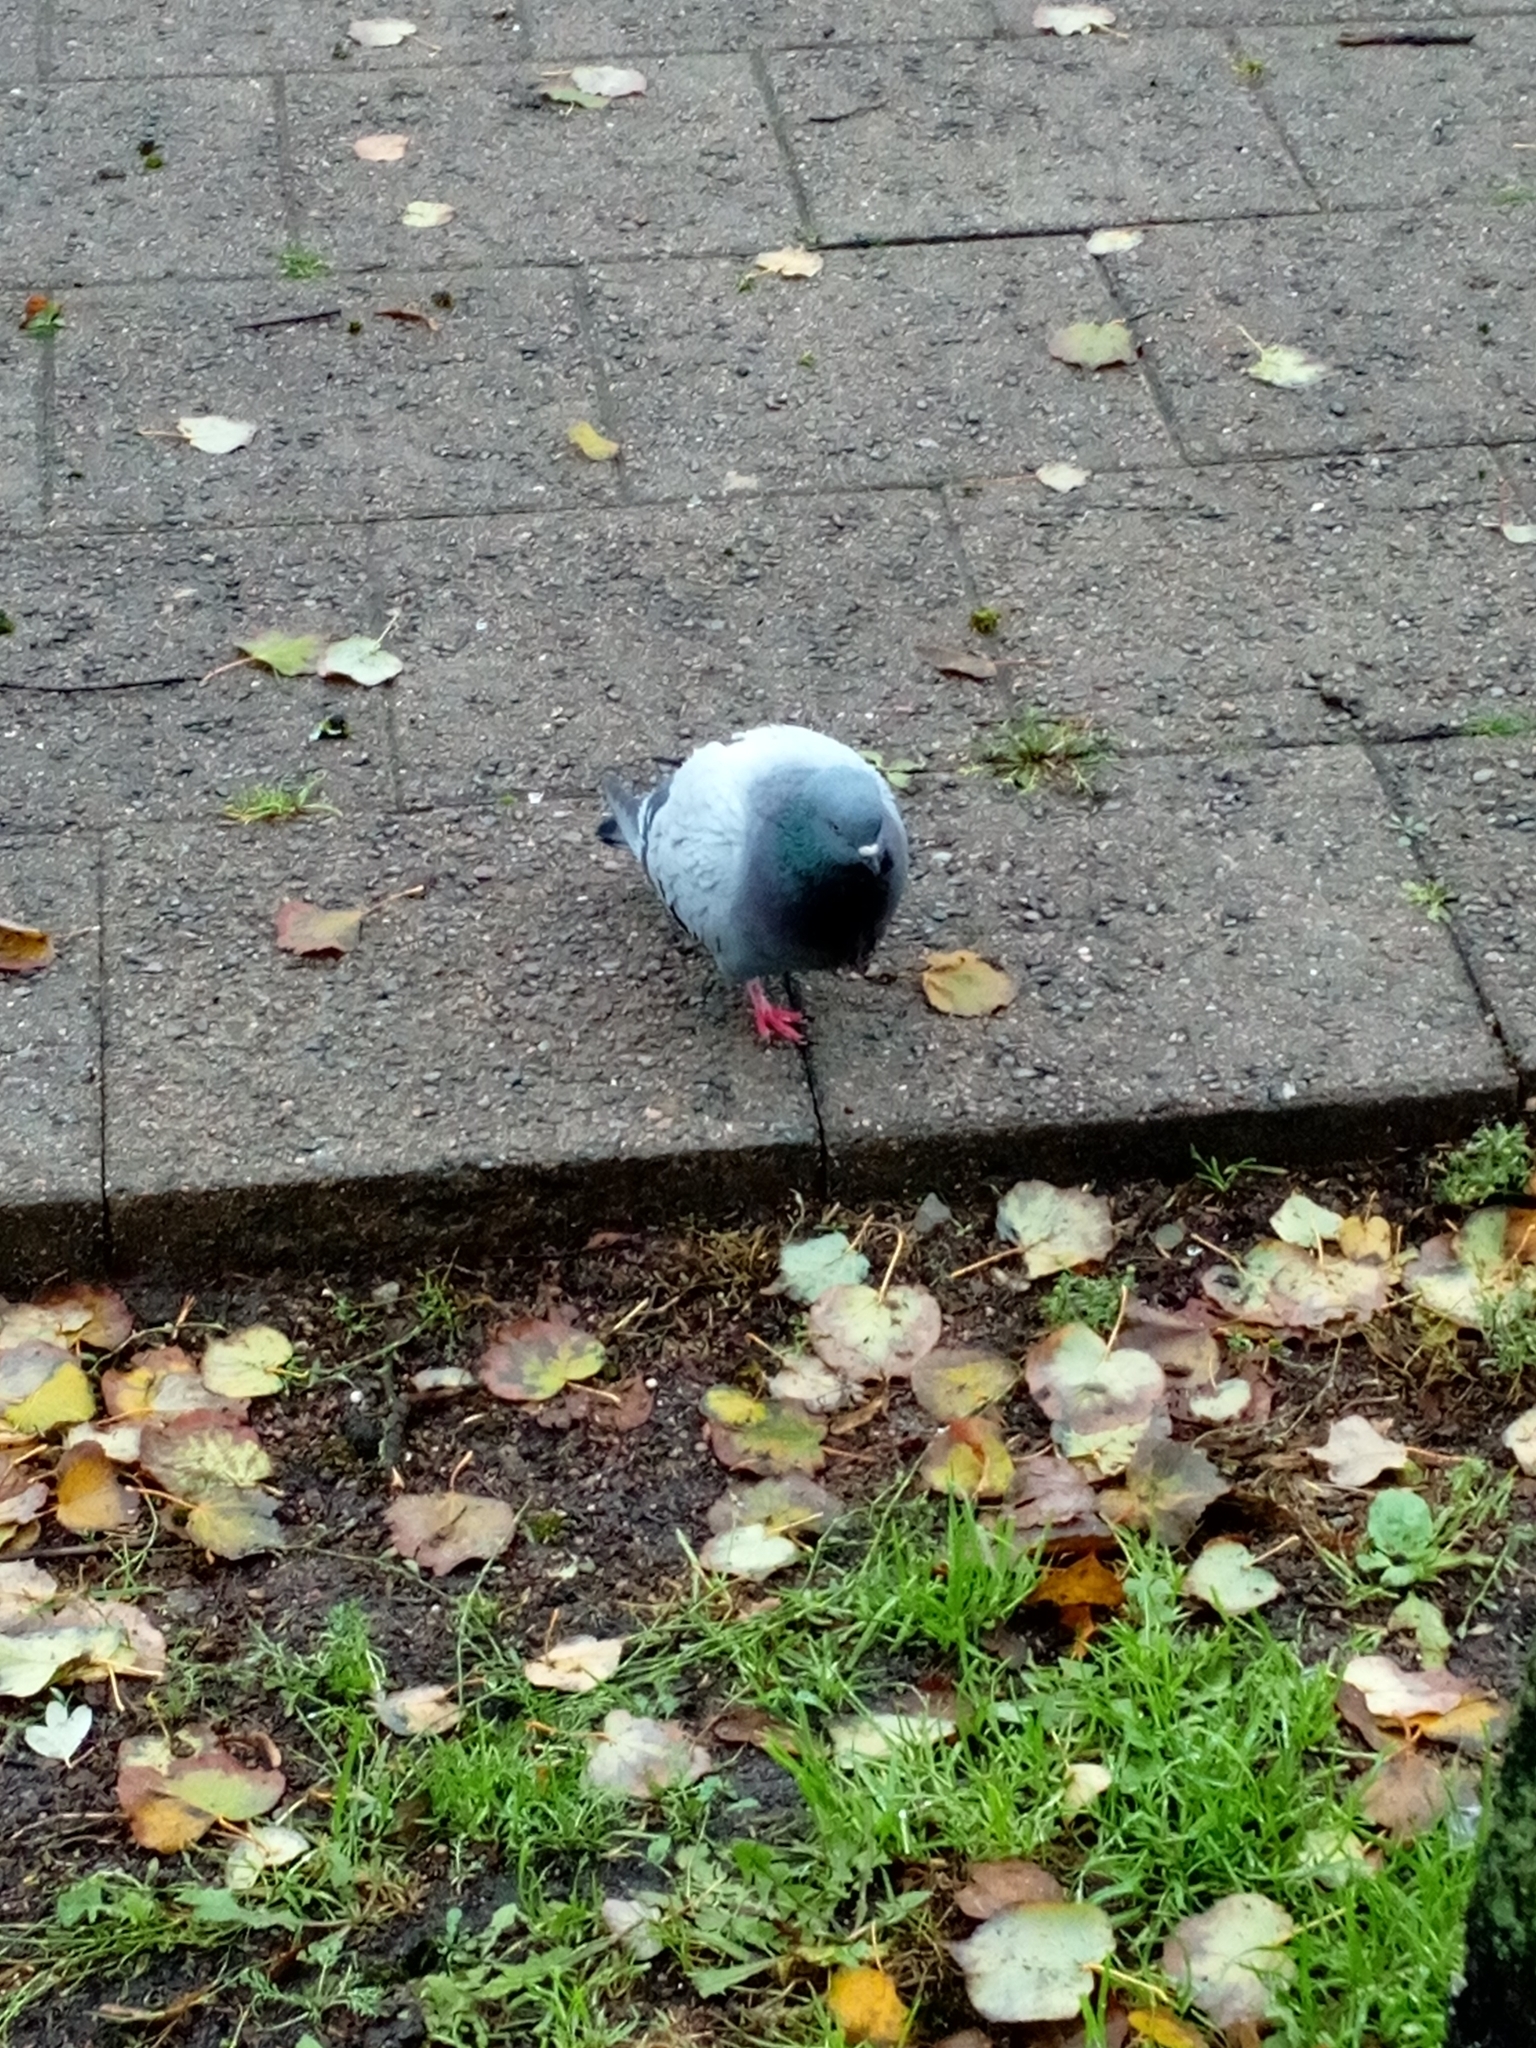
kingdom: Animalia
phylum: Chordata
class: Aves
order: Columbiformes
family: Columbidae
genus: Columba
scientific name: Columba livia
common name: Rock pigeon
